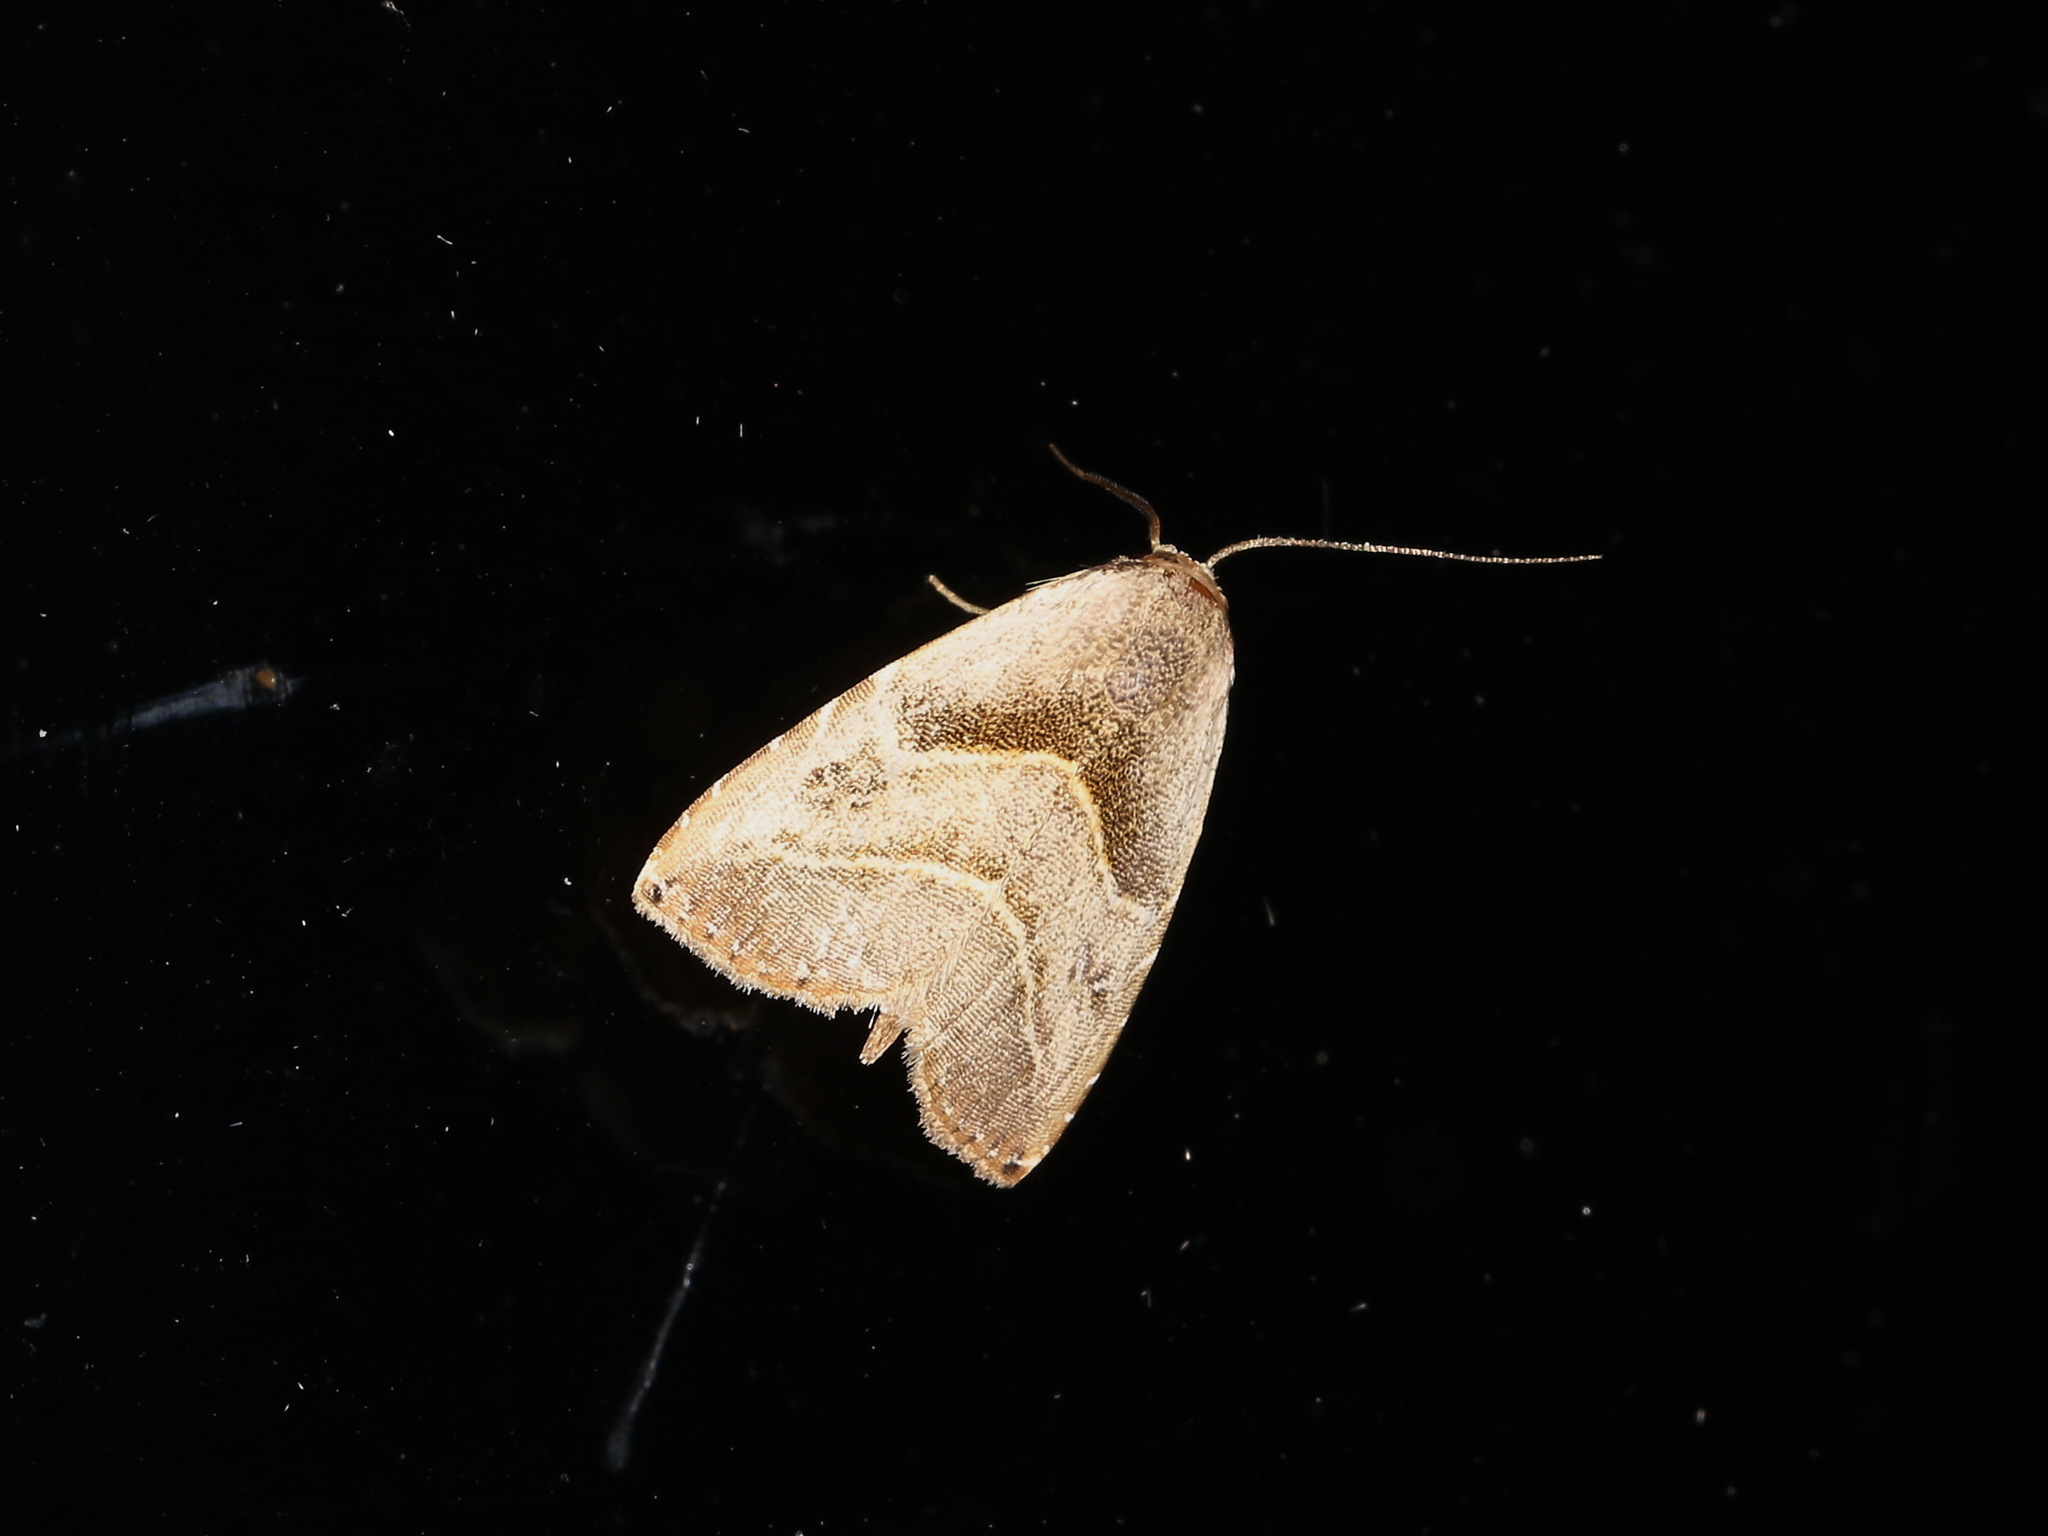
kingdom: Animalia
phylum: Arthropoda
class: Insecta
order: Lepidoptera
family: Erebidae
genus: Rivula
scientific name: Rivula simulatrix
